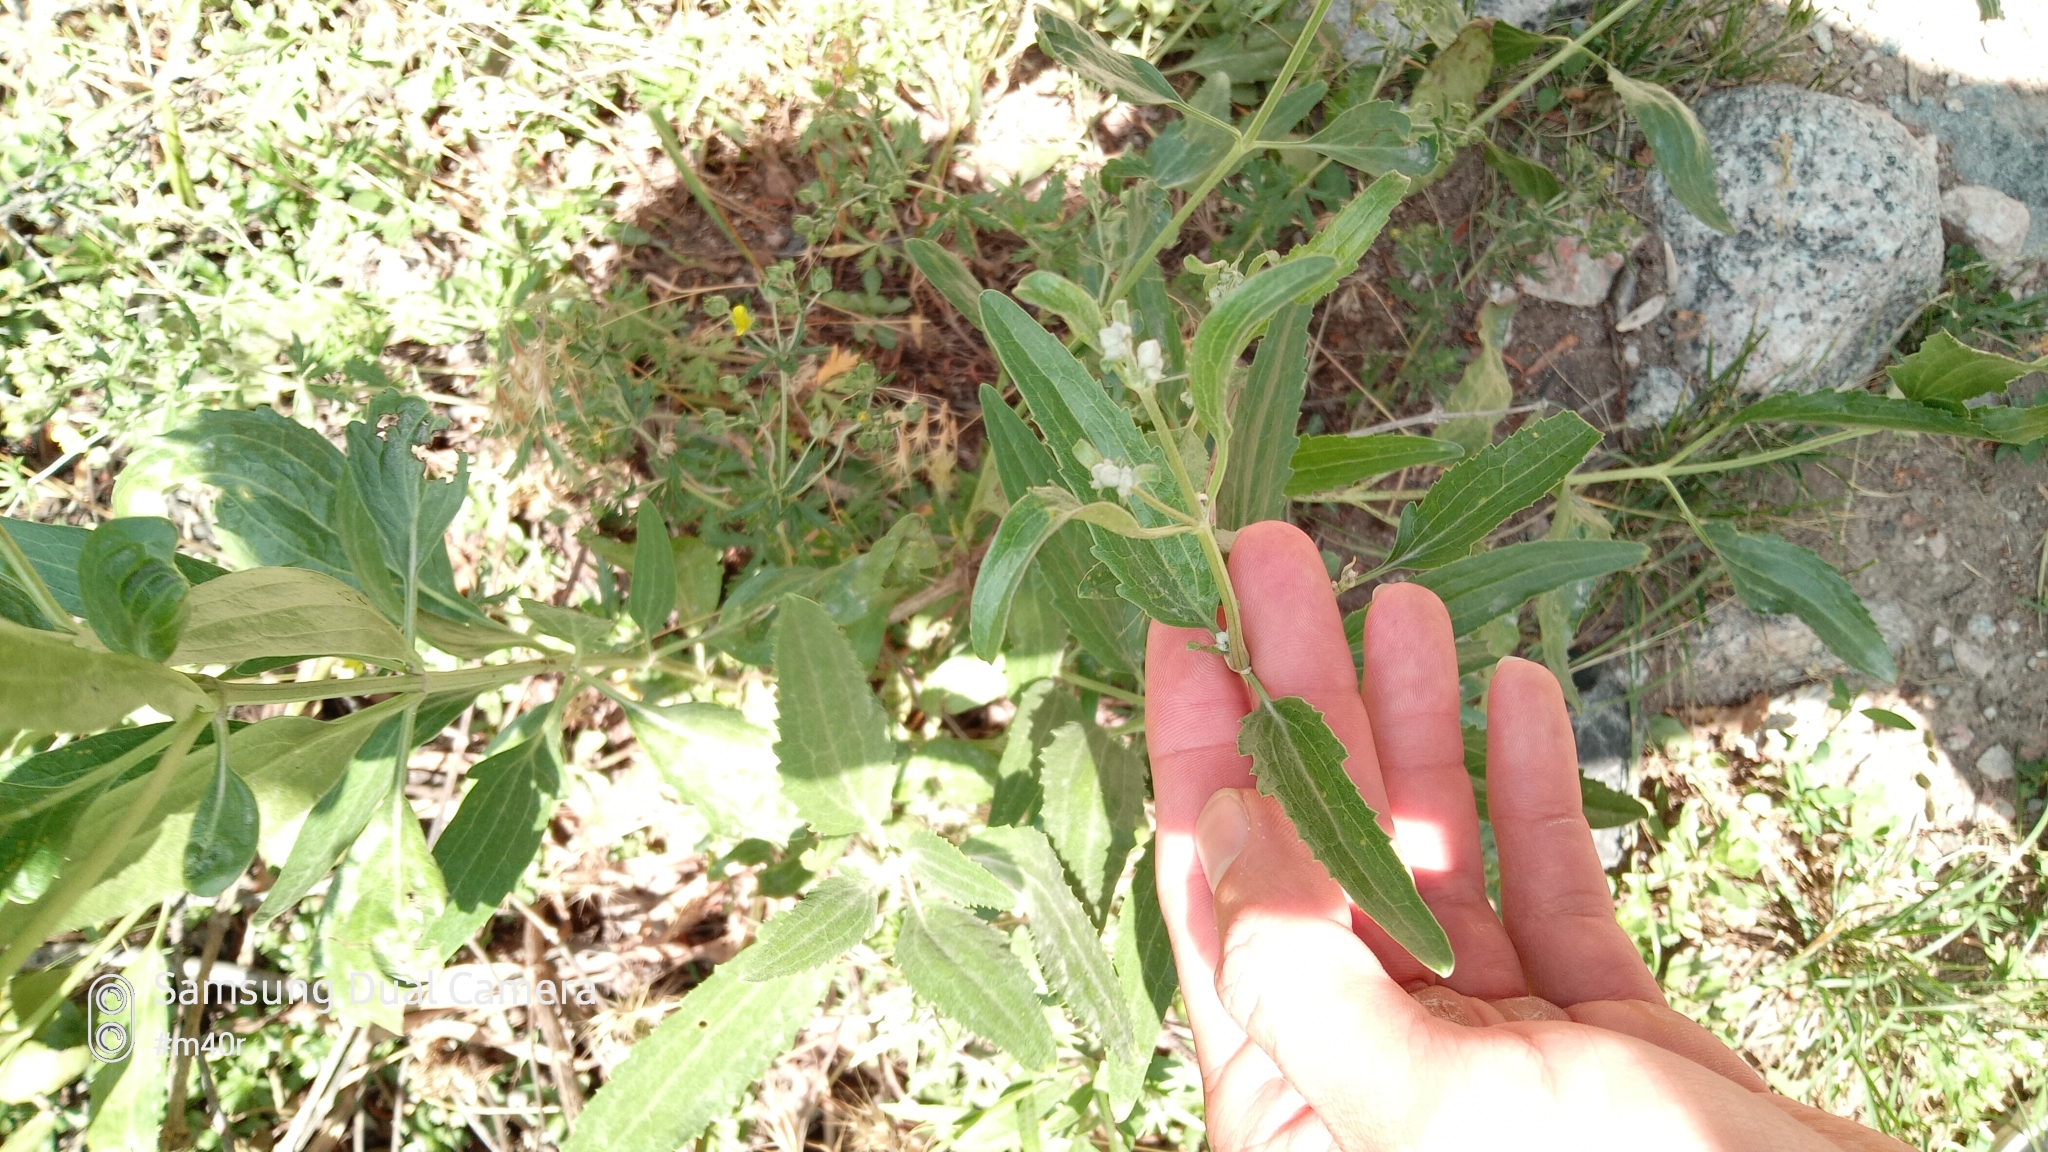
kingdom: Plantae
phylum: Tracheophyta
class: Magnoliopsida
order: Ranunculales
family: Ranunculaceae
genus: Clematis
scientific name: Clematis songorica
